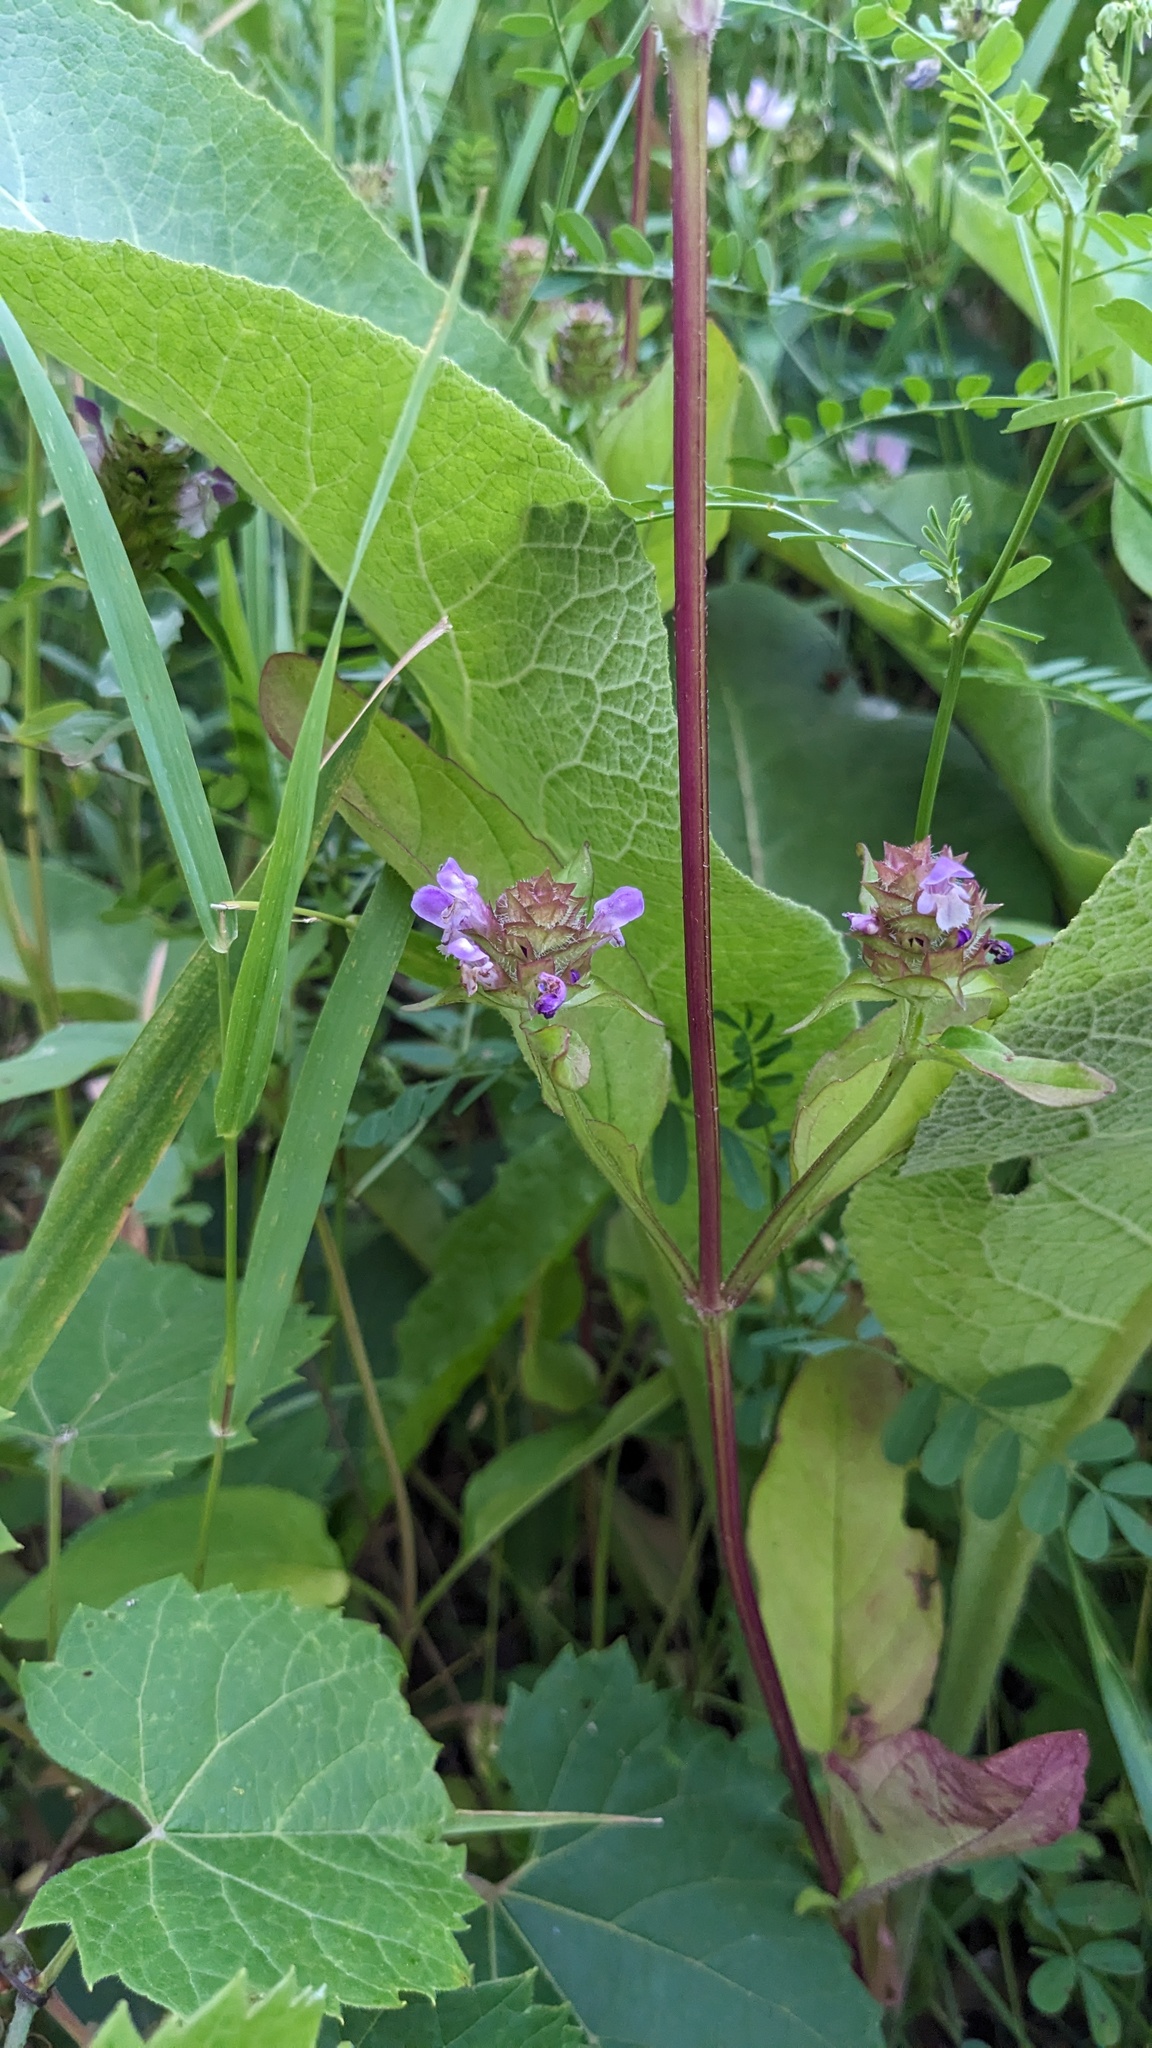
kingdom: Plantae
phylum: Tracheophyta
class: Magnoliopsida
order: Lamiales
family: Lamiaceae
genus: Prunella
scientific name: Prunella vulgaris
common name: Heal-all
